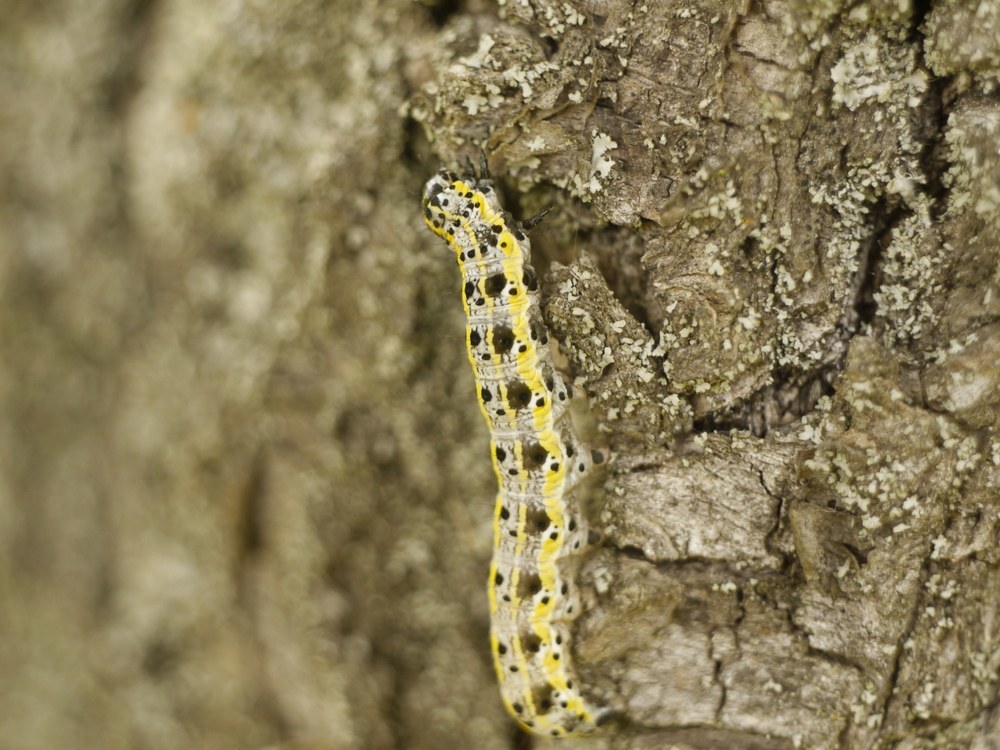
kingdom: Animalia
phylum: Arthropoda
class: Insecta
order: Lepidoptera
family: Noctuidae
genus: Orthosia
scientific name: Orthosia miniosa
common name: Blossom underwing
